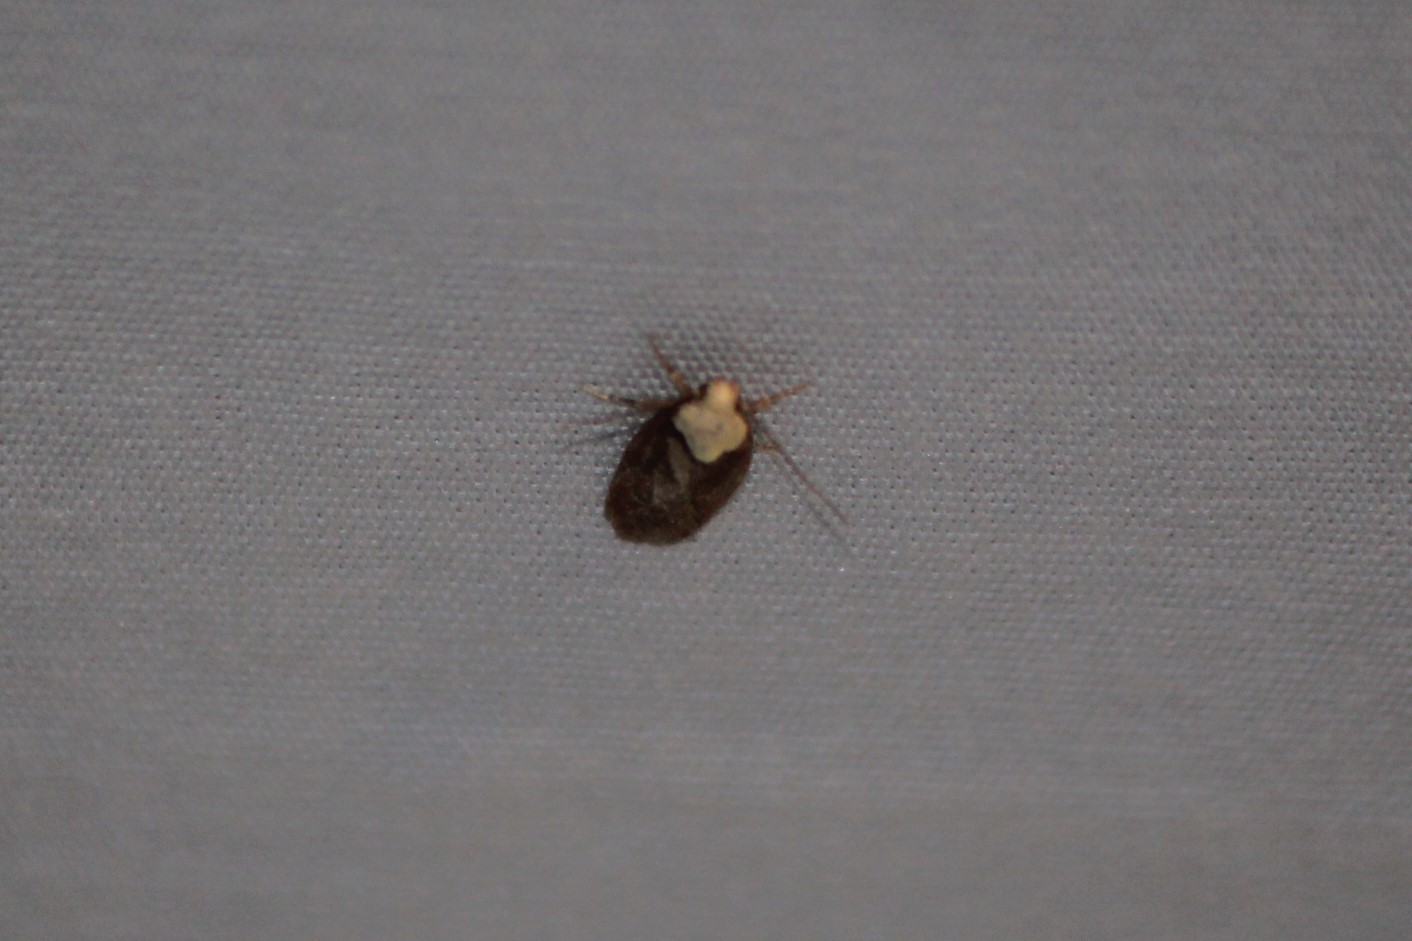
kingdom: Animalia
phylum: Arthropoda
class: Insecta
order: Lepidoptera
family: Depressariidae
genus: Depressaria
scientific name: Depressaria depressana
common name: Lost flat-body
